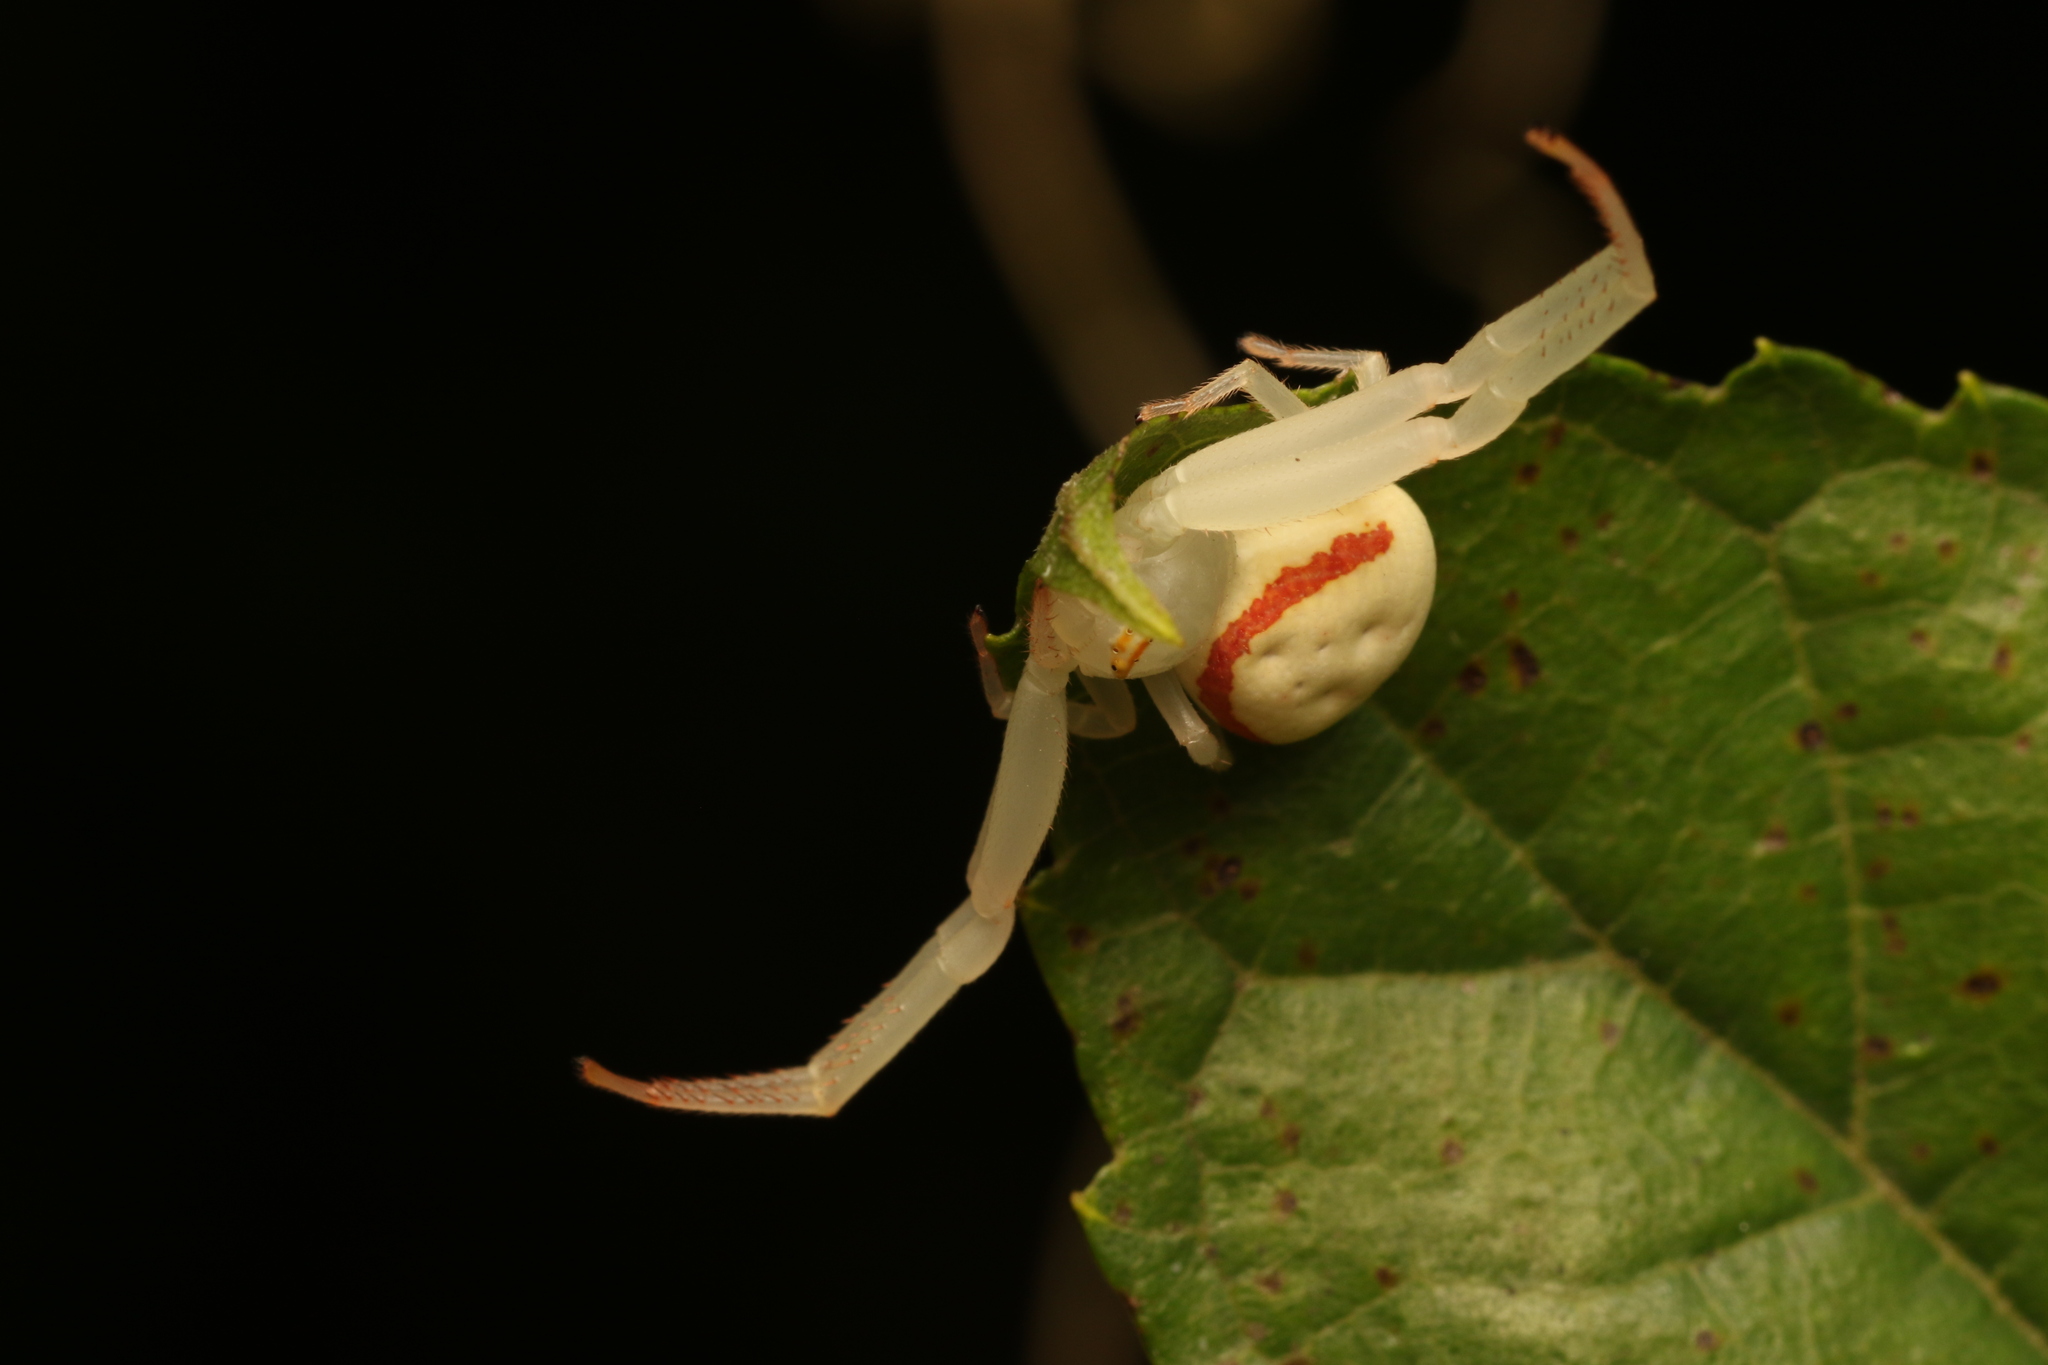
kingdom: Animalia
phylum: Arthropoda
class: Arachnida
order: Araneae
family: Thomisidae
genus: Misumenops
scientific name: Misumenops callinurus
